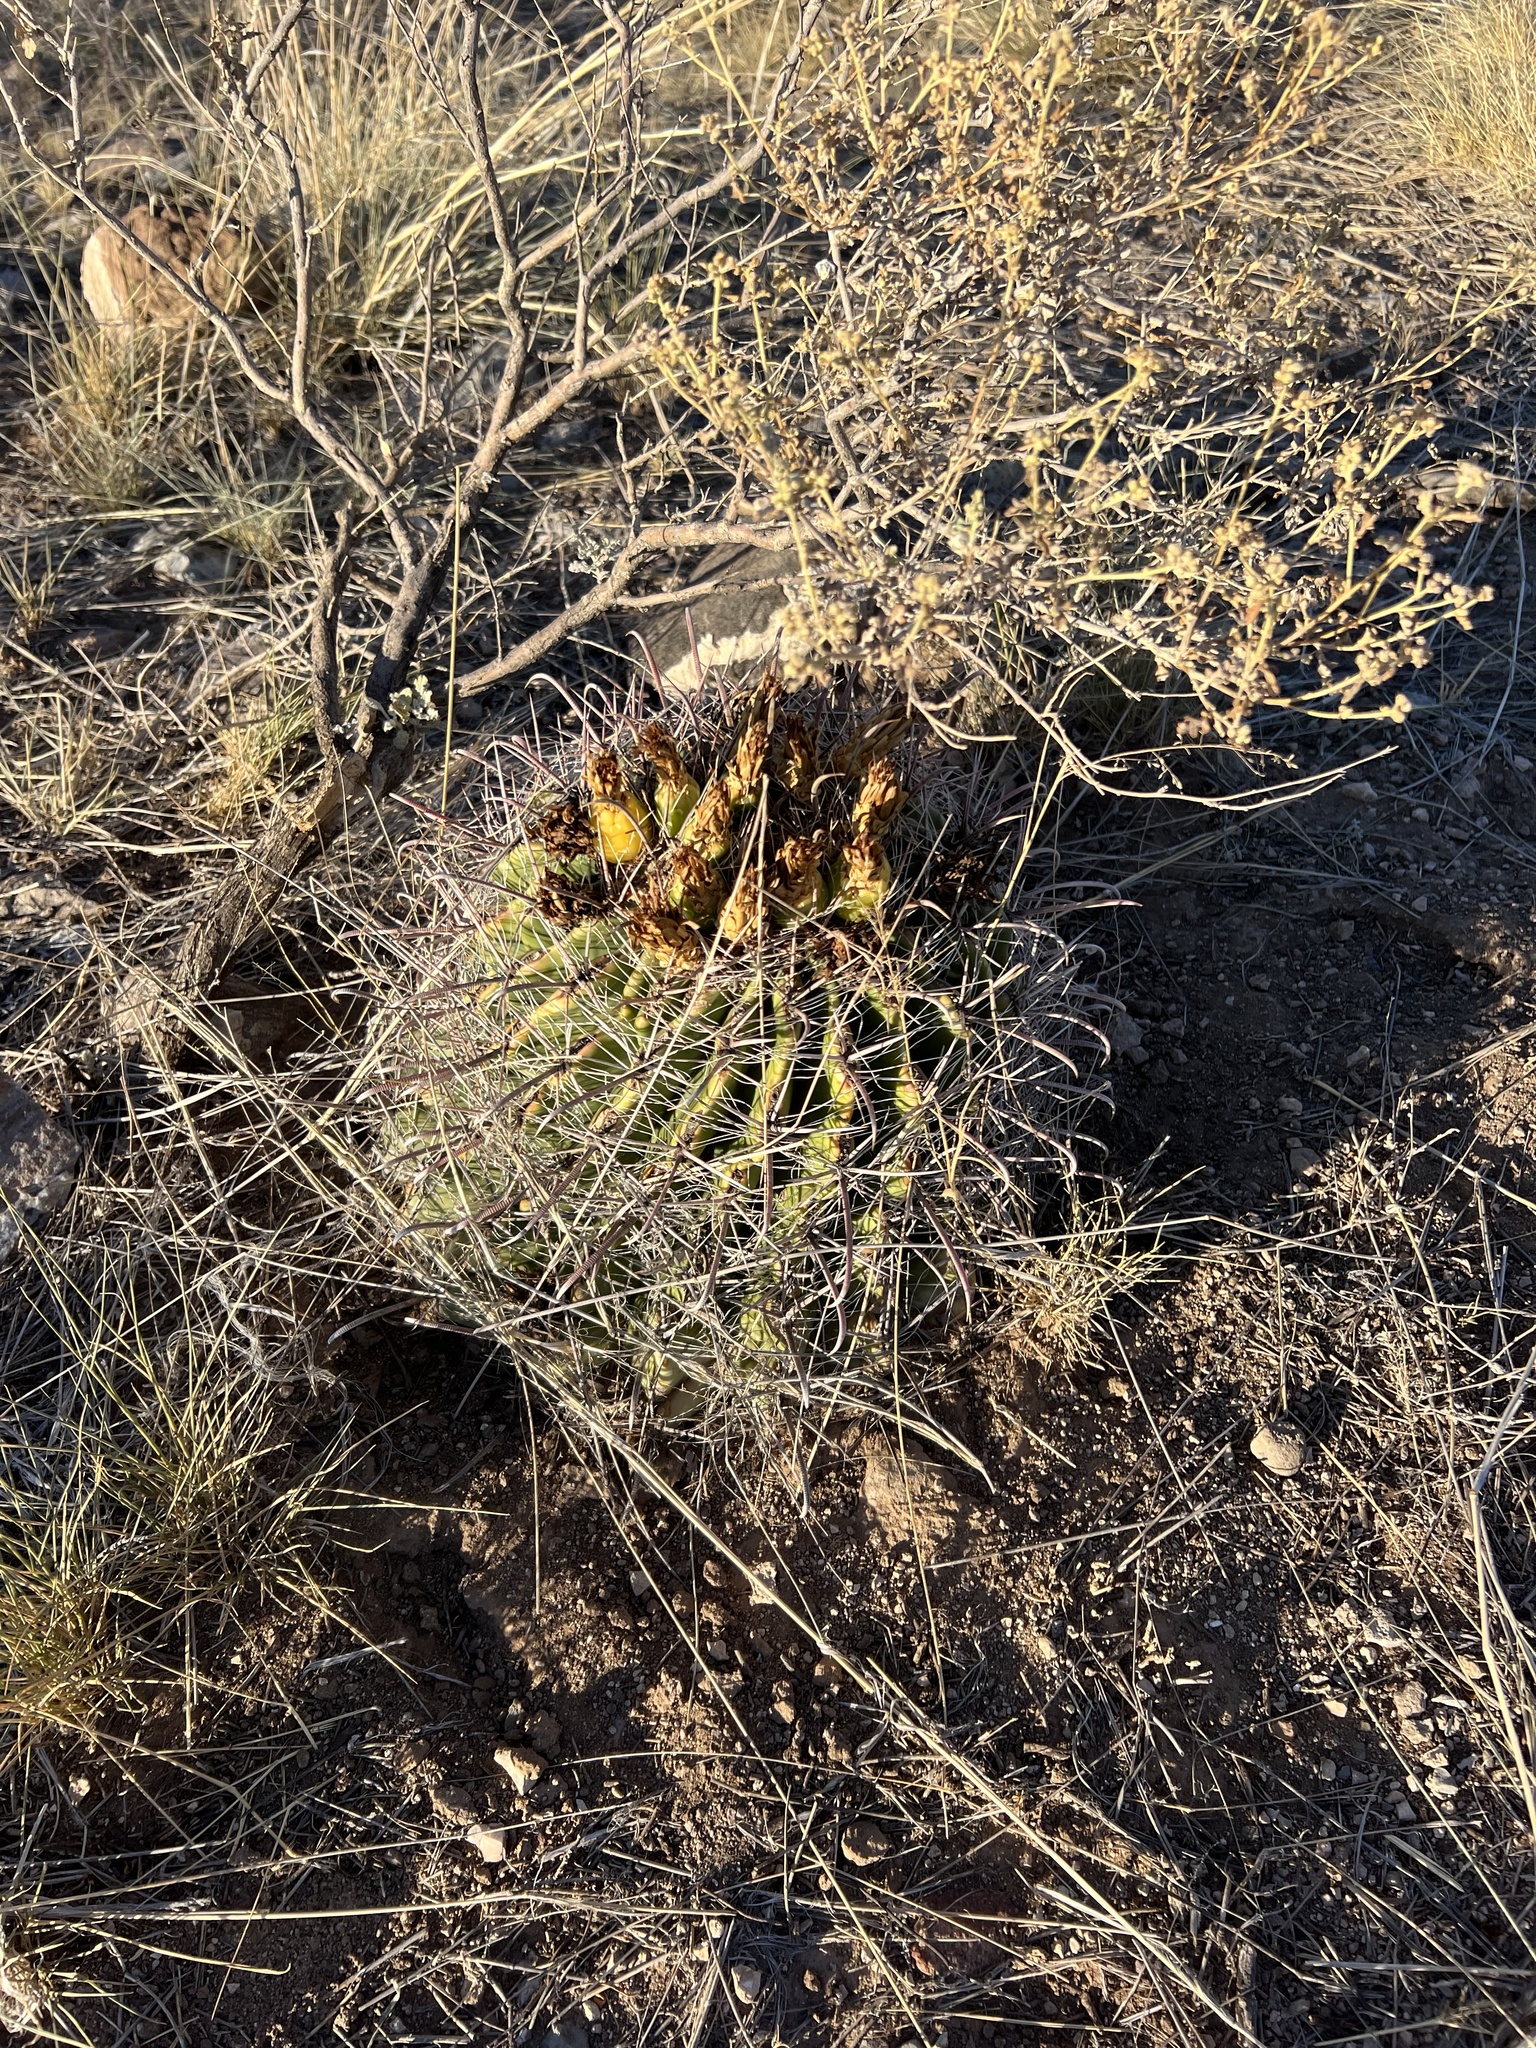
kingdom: Plantae
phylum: Tracheophyta
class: Magnoliopsida
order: Caryophyllales
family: Cactaceae
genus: Ferocactus
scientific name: Ferocactus wislizeni
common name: Candy barrel cactus
